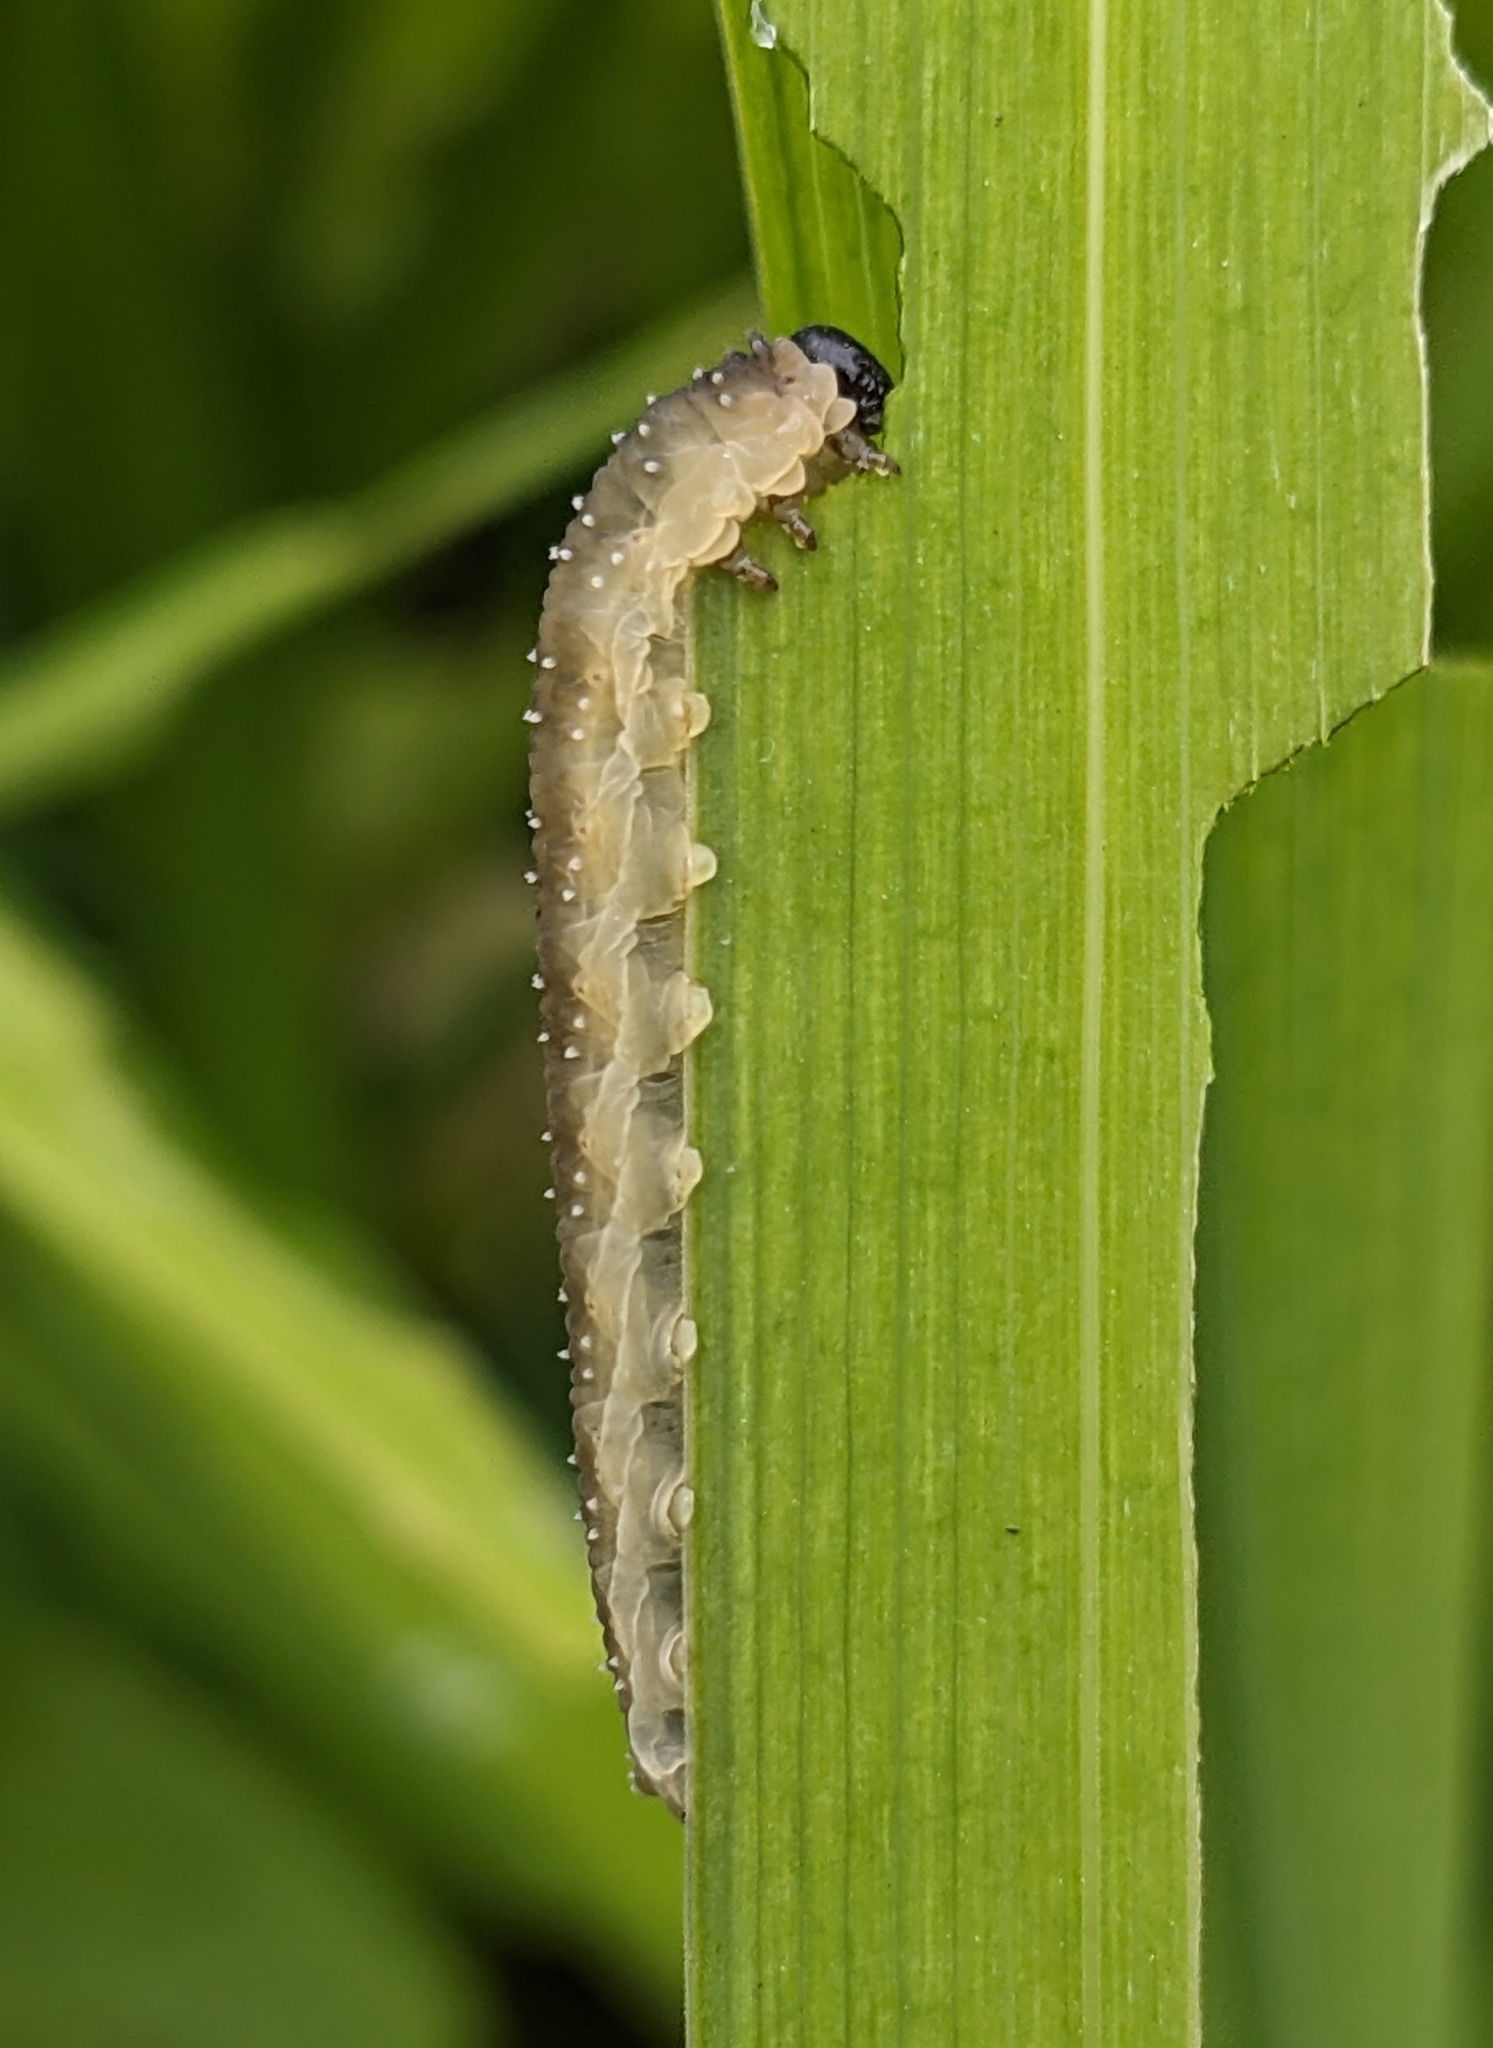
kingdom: Animalia
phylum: Arthropoda
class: Insecta
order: Hymenoptera
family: Tenthredinidae
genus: Rhadinoceraea
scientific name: Rhadinoceraea micans
